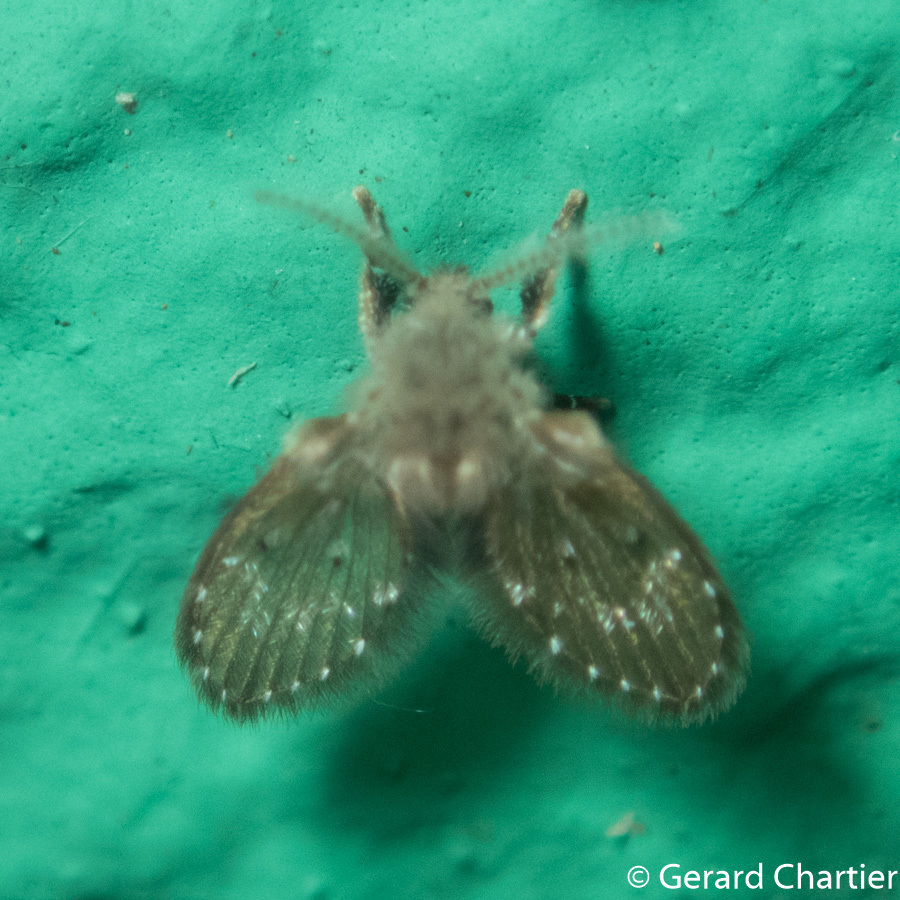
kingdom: Animalia
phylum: Arthropoda
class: Insecta
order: Diptera
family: Psychodidae
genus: Clogmia
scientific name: Clogmia albipunctatus
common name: White-spotted moth fly
